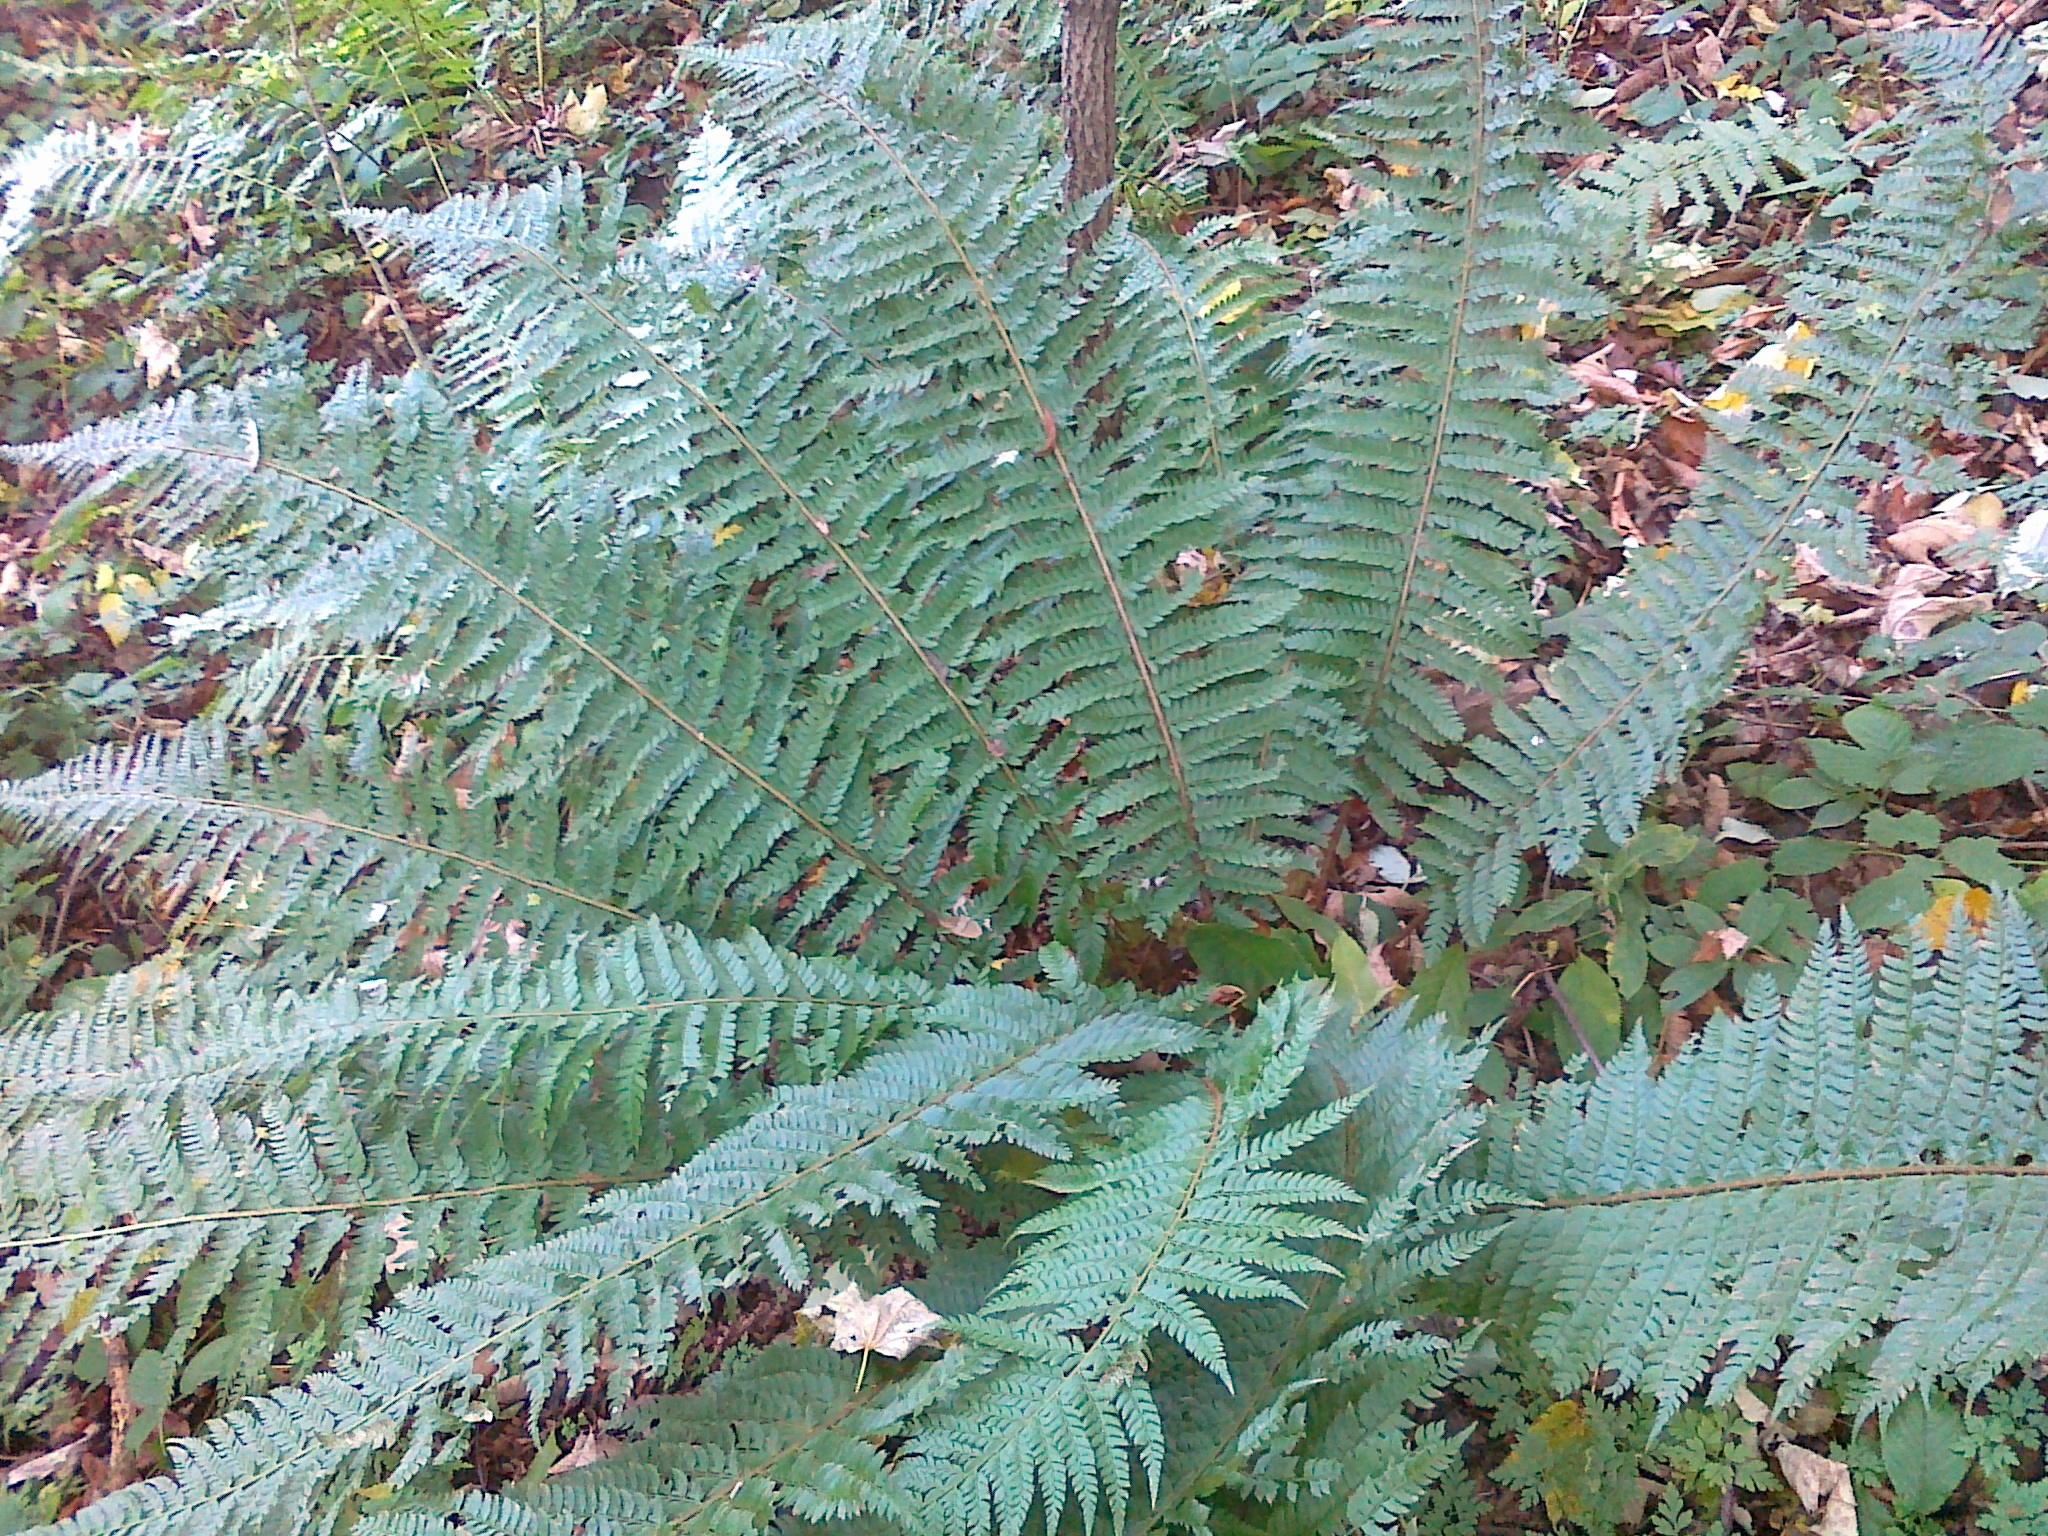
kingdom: Plantae
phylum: Tracheophyta
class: Polypodiopsida
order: Polypodiales
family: Dryopteridaceae
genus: Polystichum
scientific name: Polystichum aculeatum
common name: Hard shield-fern
